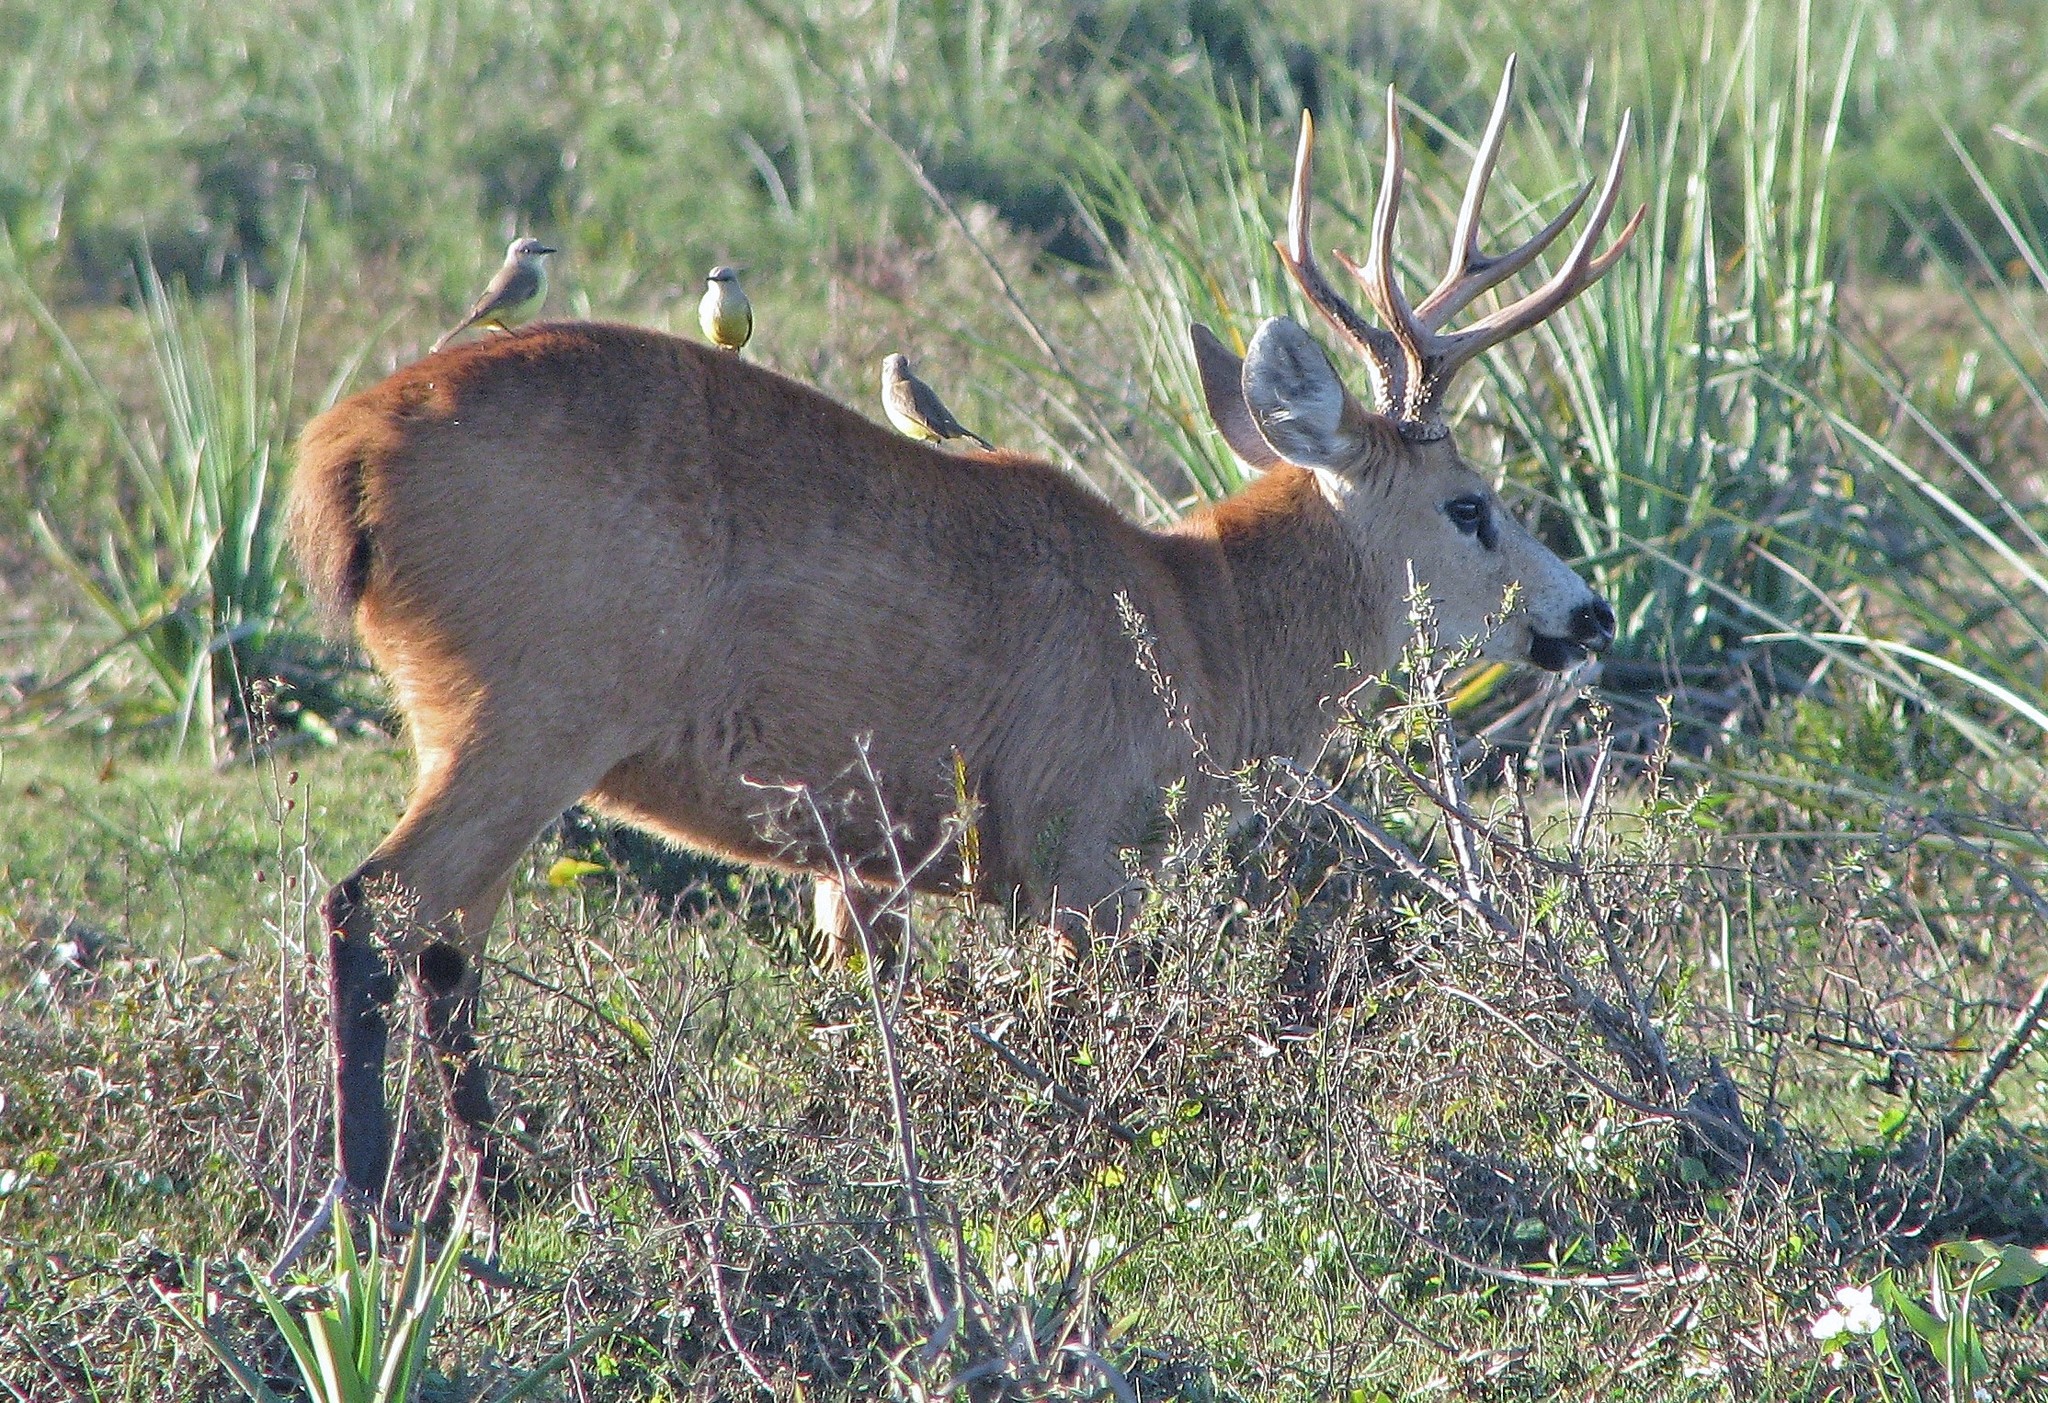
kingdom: Animalia
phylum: Chordata
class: Mammalia
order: Artiodactyla
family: Cervidae
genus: Blastocerus
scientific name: Blastocerus dichotomus
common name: Marsh deer
